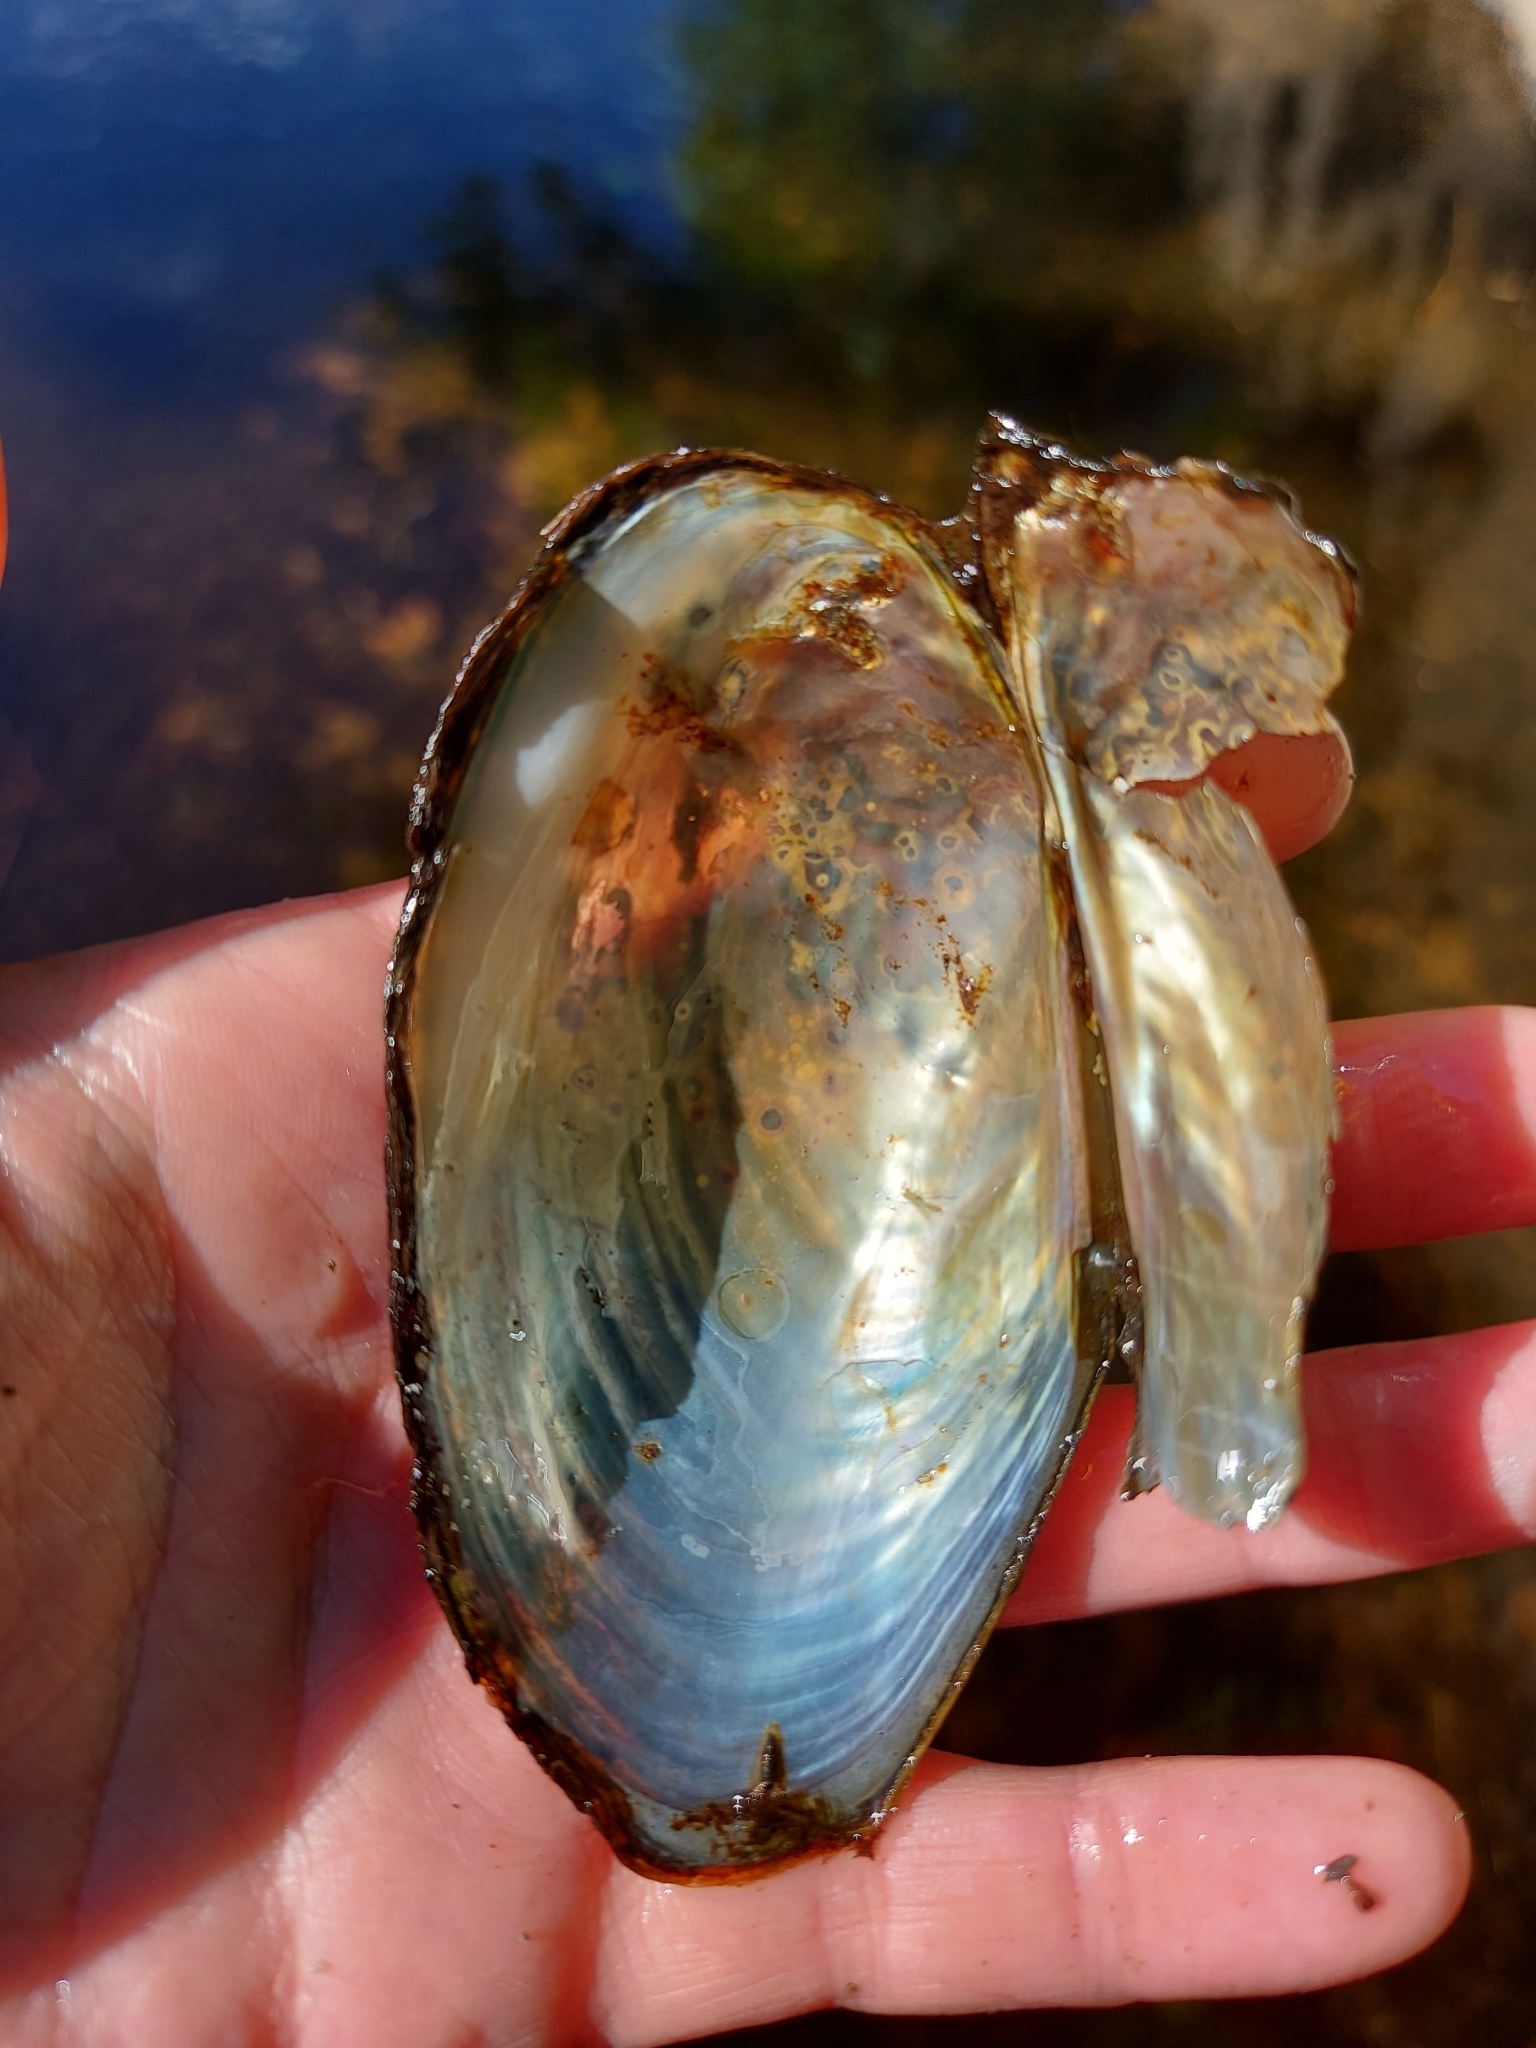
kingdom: Animalia
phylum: Mollusca
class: Bivalvia
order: Unionida
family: Unionidae
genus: Utterbackiana
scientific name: Utterbackiana implicata
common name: Alewife floater
